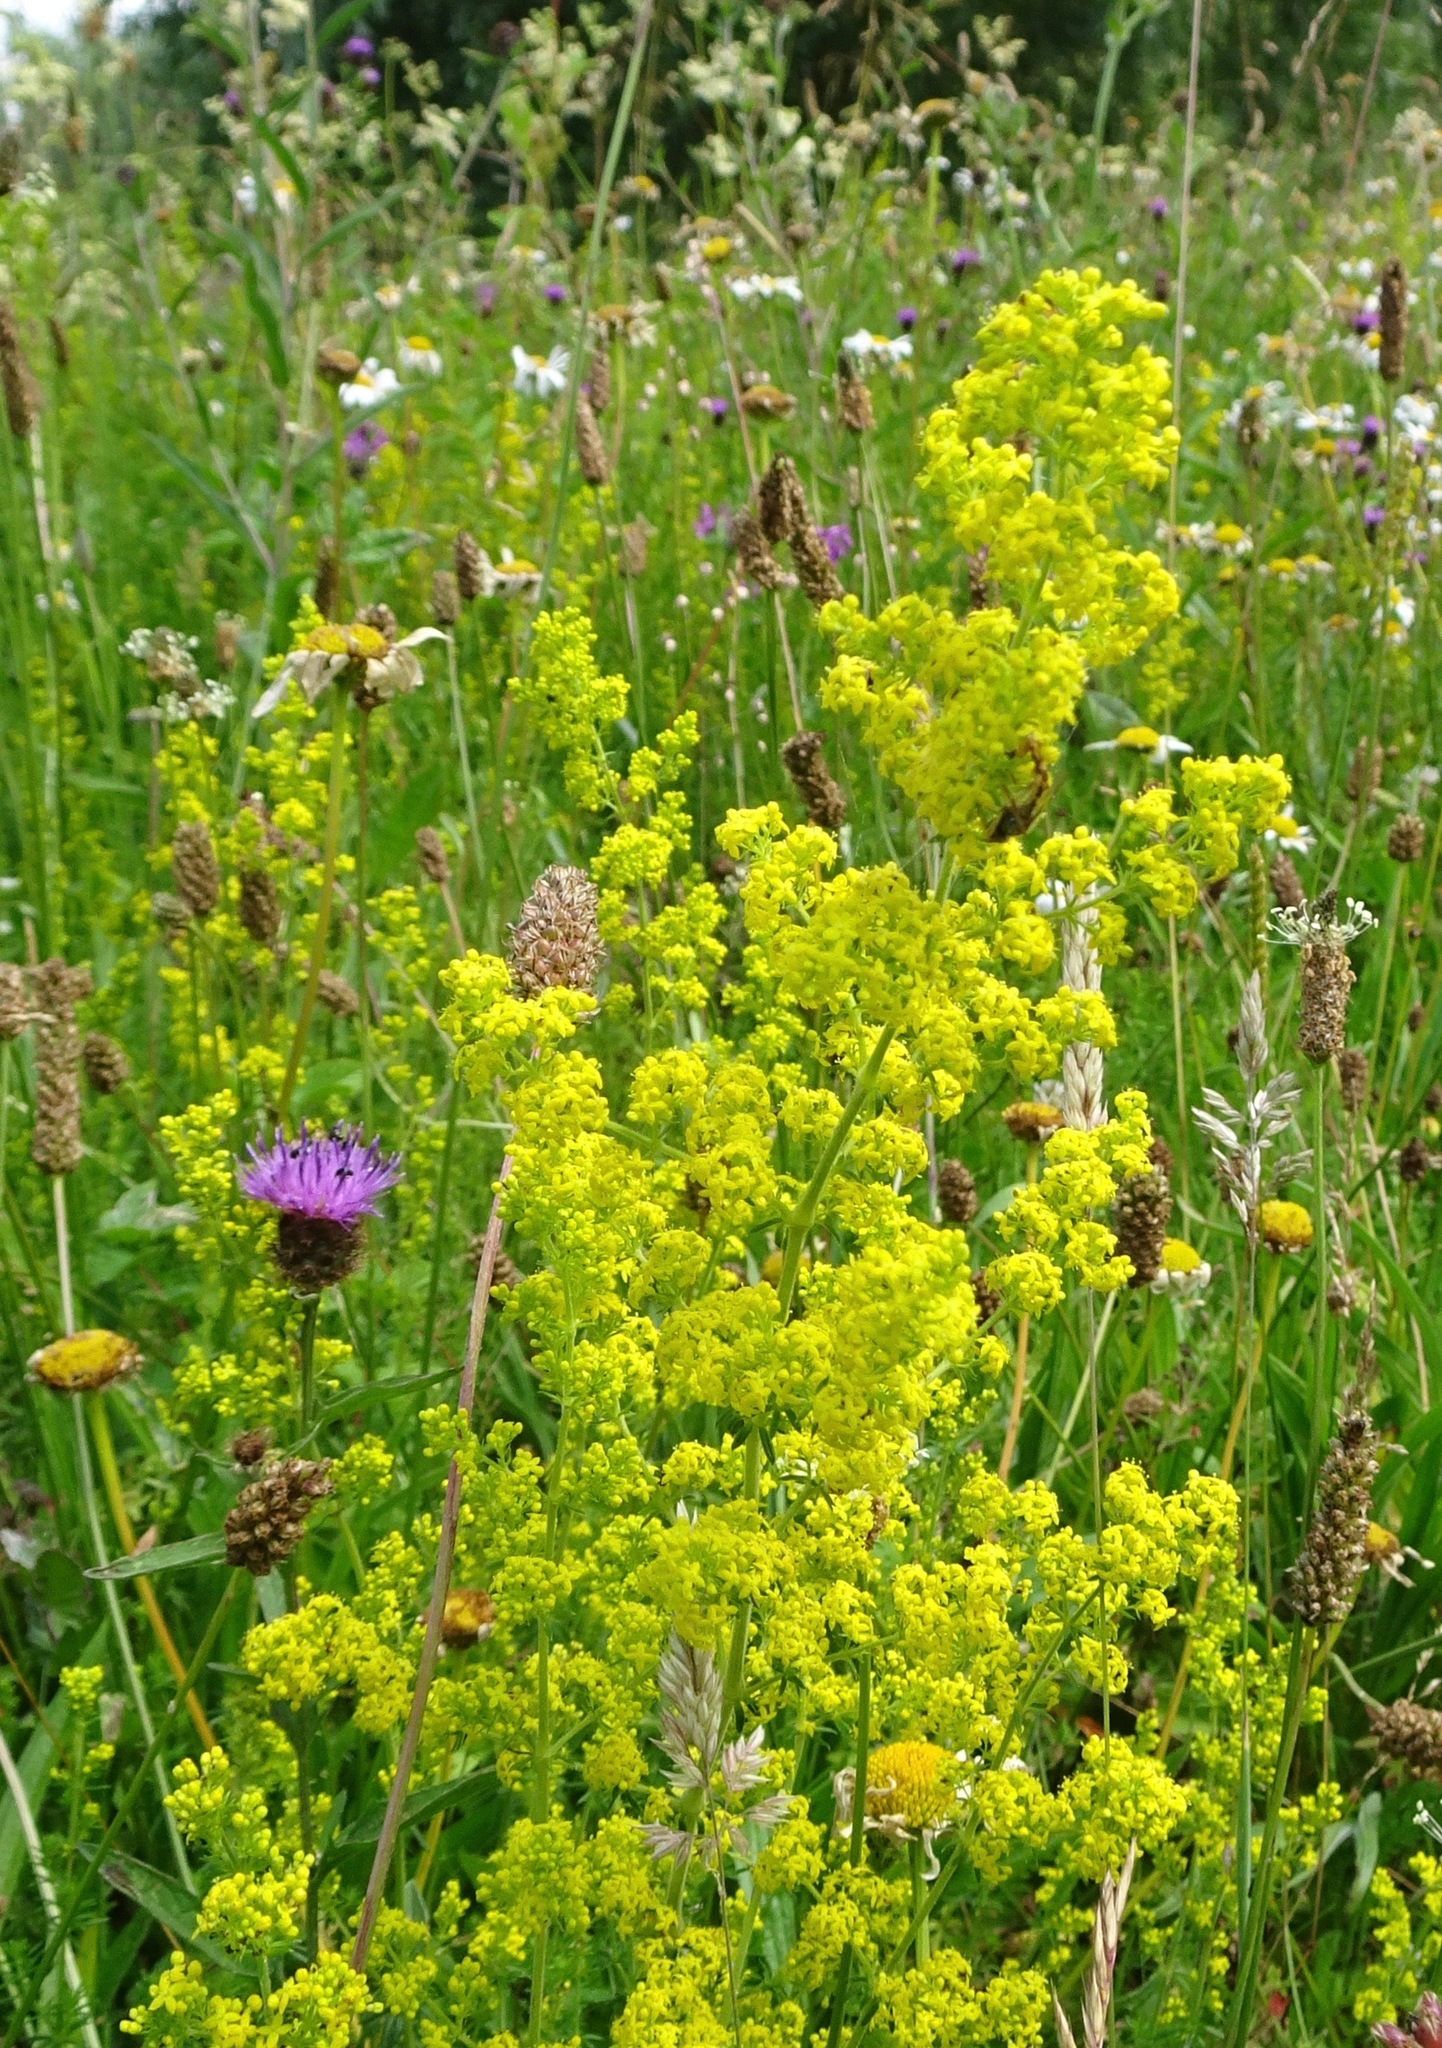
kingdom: Plantae
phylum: Tracheophyta
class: Magnoliopsida
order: Gentianales
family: Rubiaceae
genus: Galium
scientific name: Galium verum
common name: Lady's bedstraw
